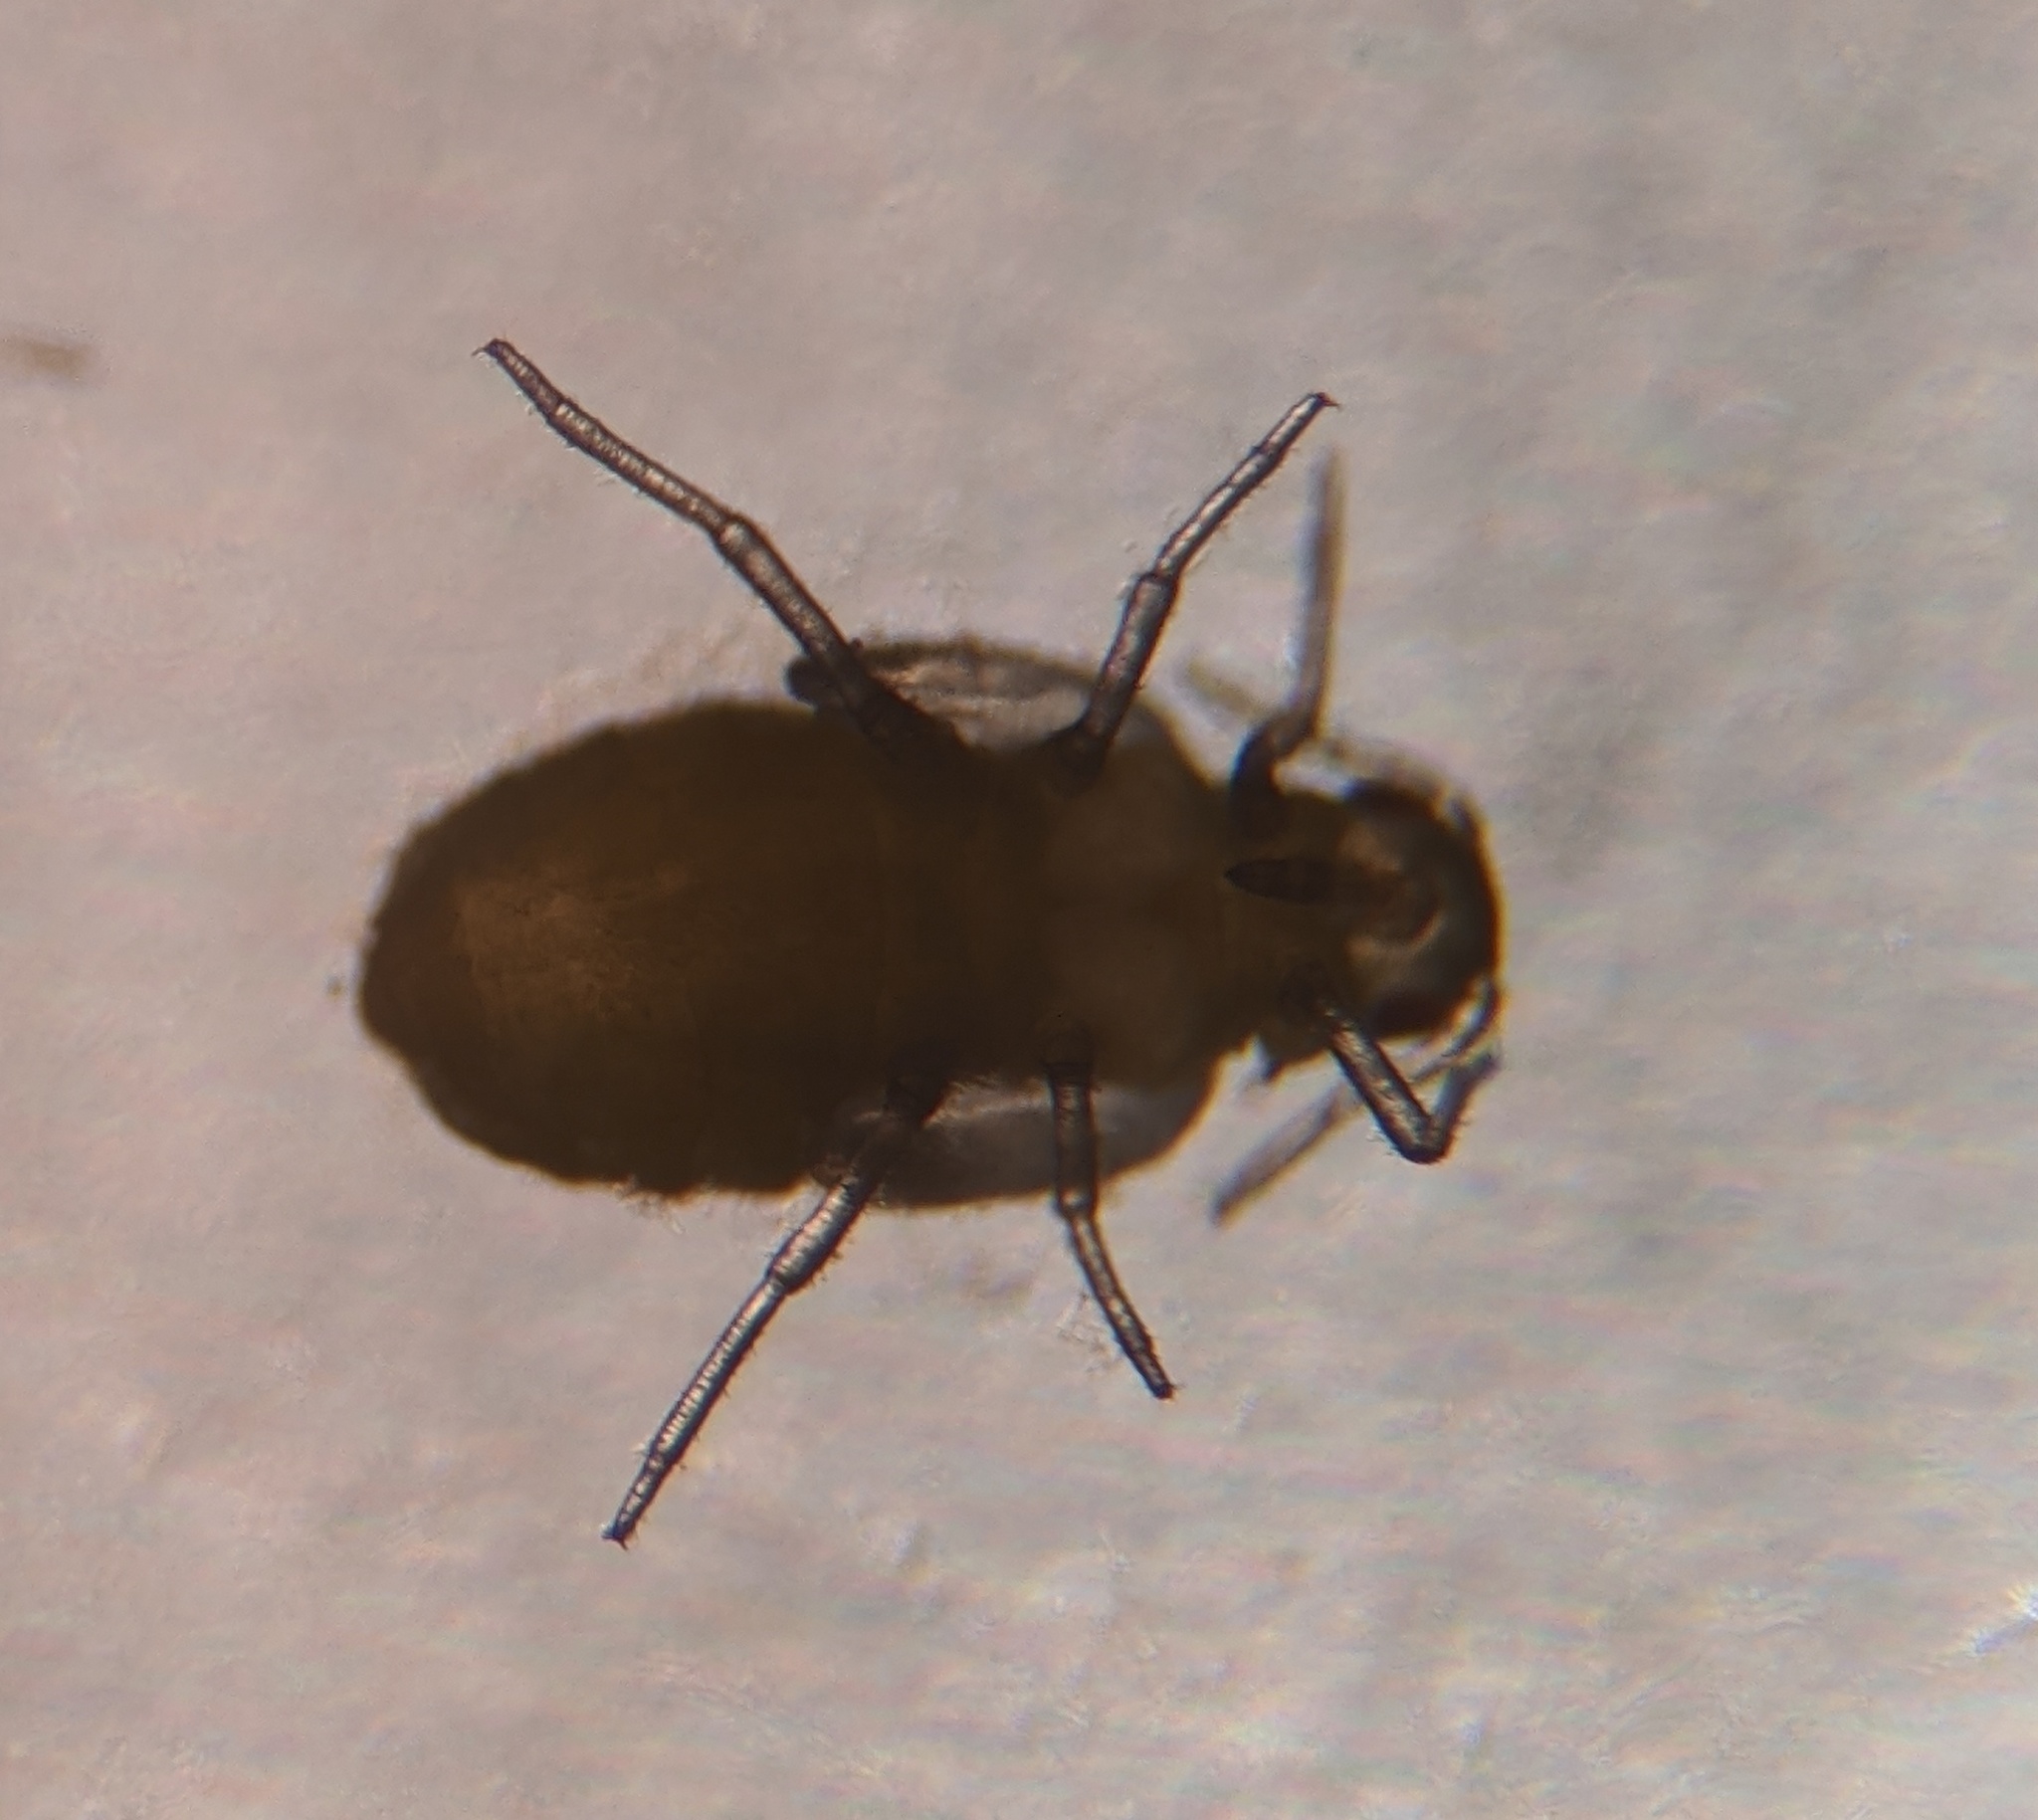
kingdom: Animalia
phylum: Arthropoda
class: Insecta
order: Hemiptera
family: Aphididae
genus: Tetraneura
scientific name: Tetraneura nigriabdominalis
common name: Aphid
